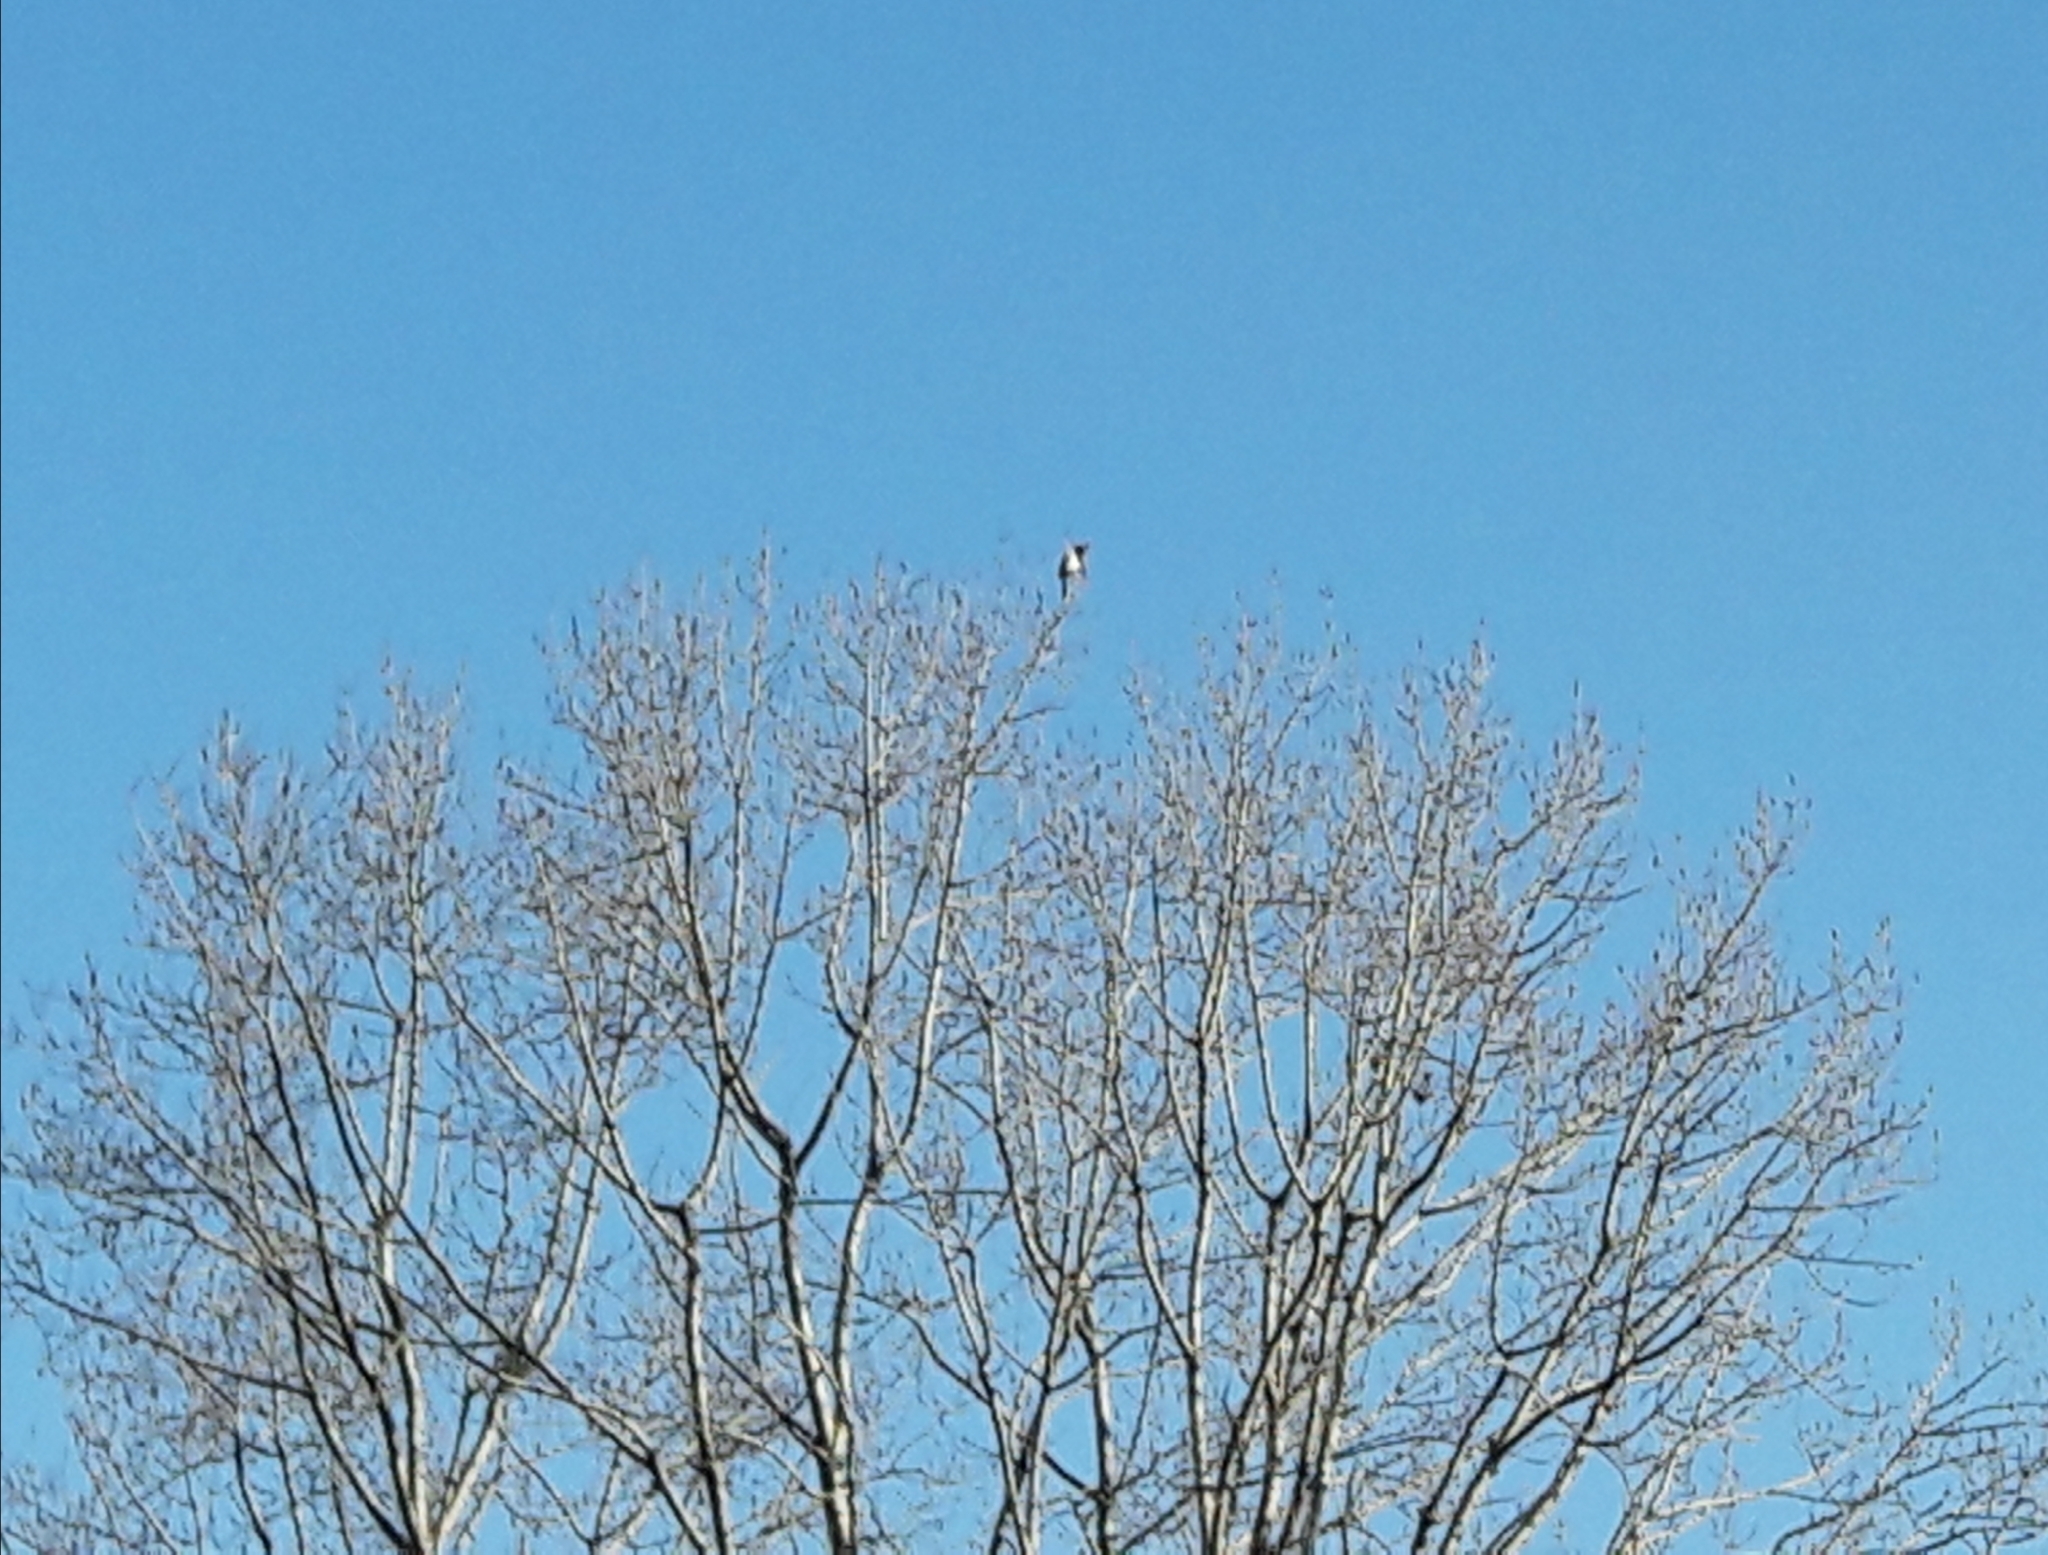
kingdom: Animalia
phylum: Chordata
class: Aves
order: Passeriformes
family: Corvidae
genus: Pica
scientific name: Pica pica
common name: Eurasian magpie
